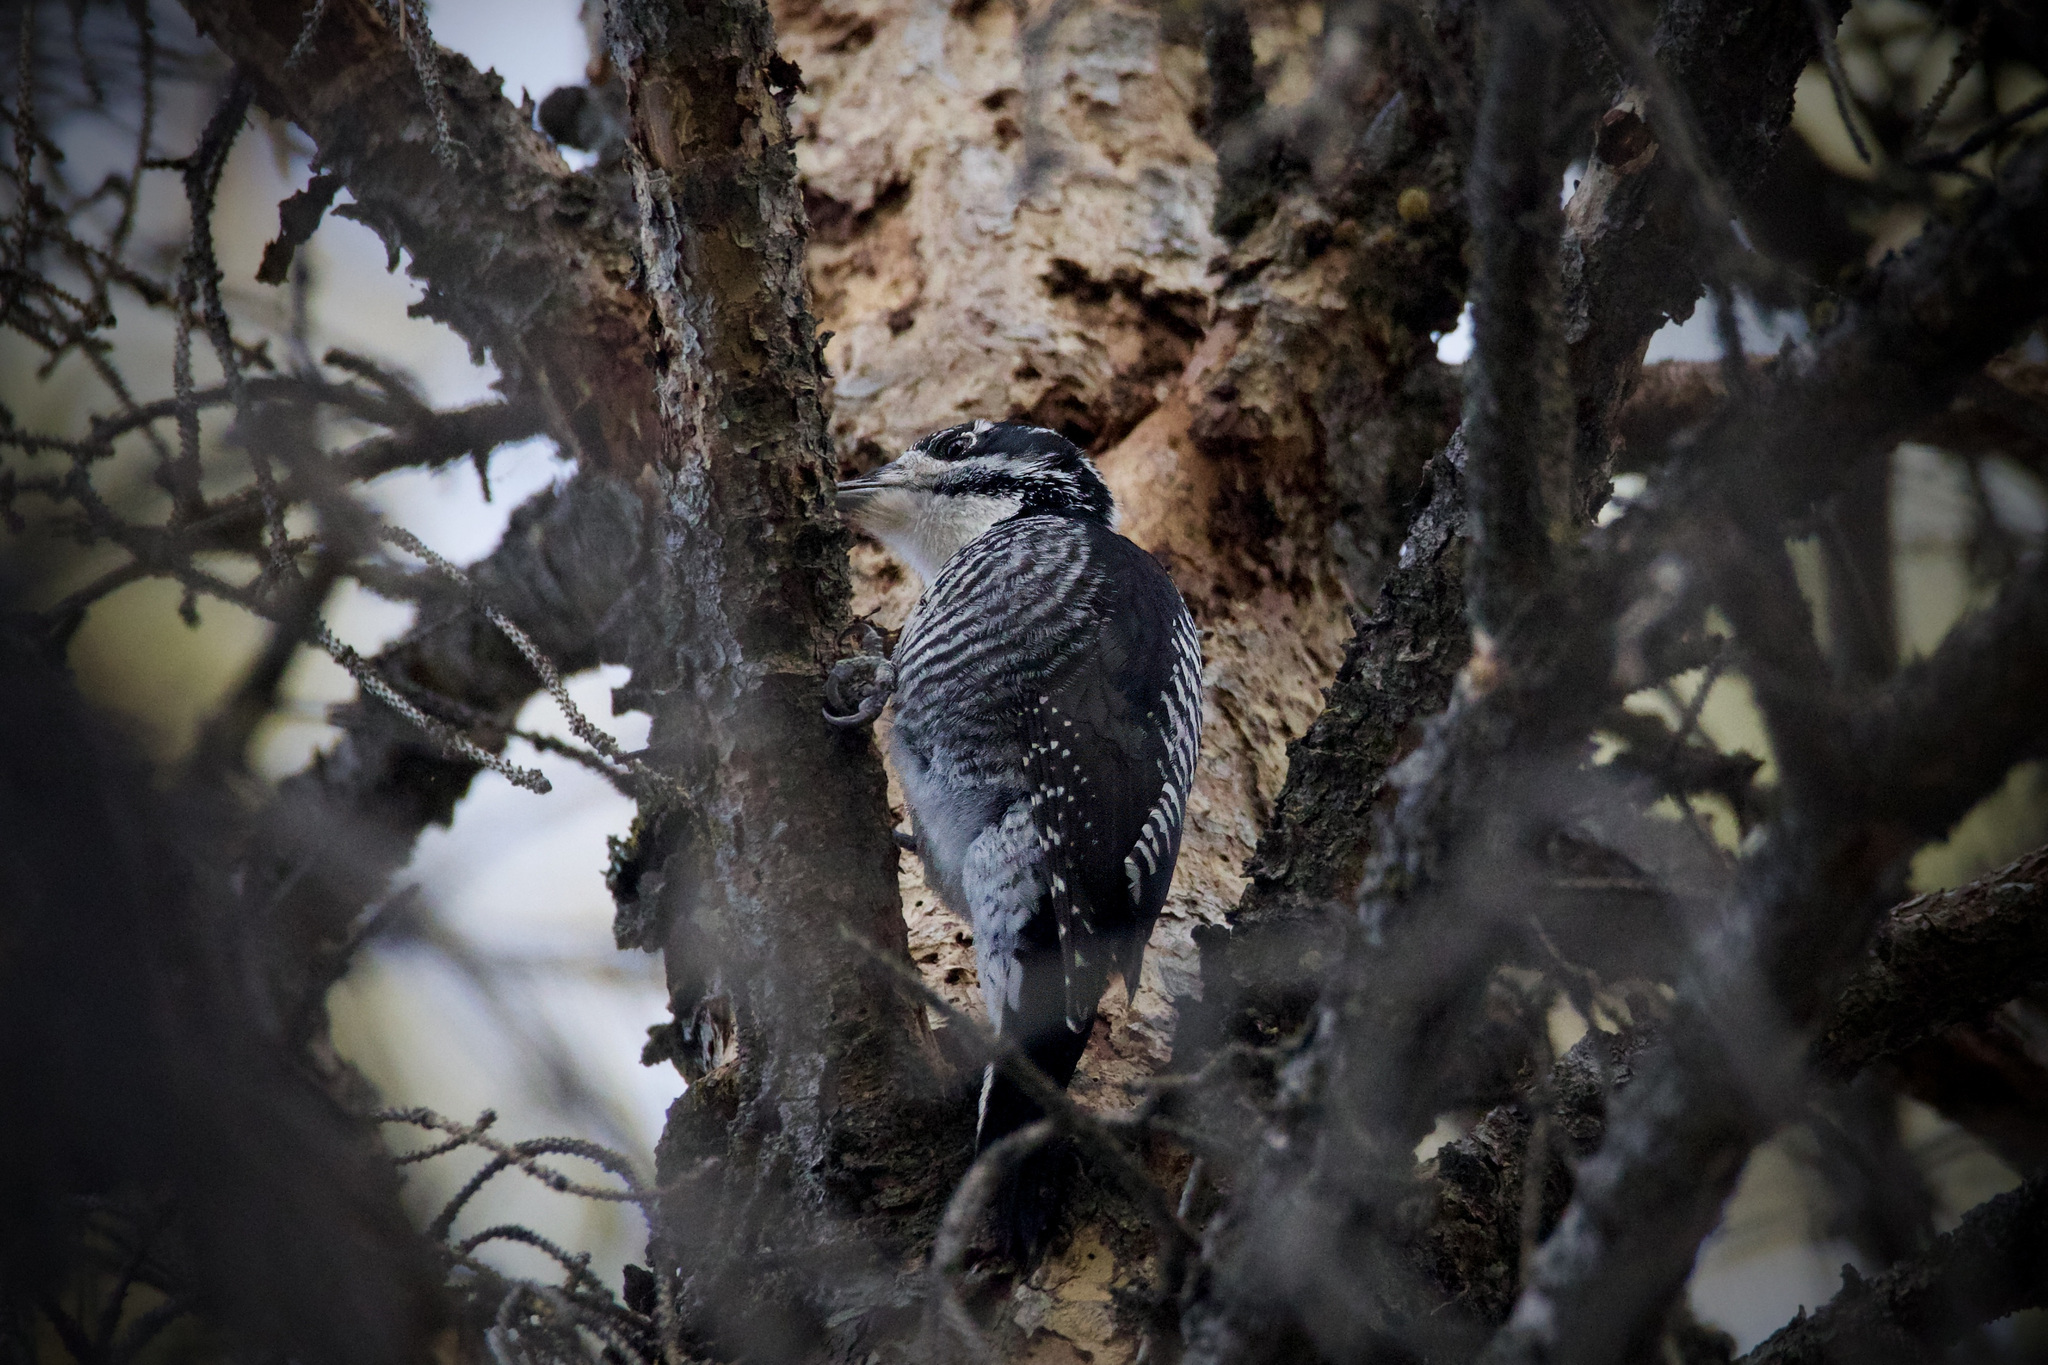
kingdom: Animalia
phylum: Chordata
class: Aves
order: Piciformes
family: Picidae
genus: Picoides
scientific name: Picoides dorsalis
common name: American three-toed woodpecker
